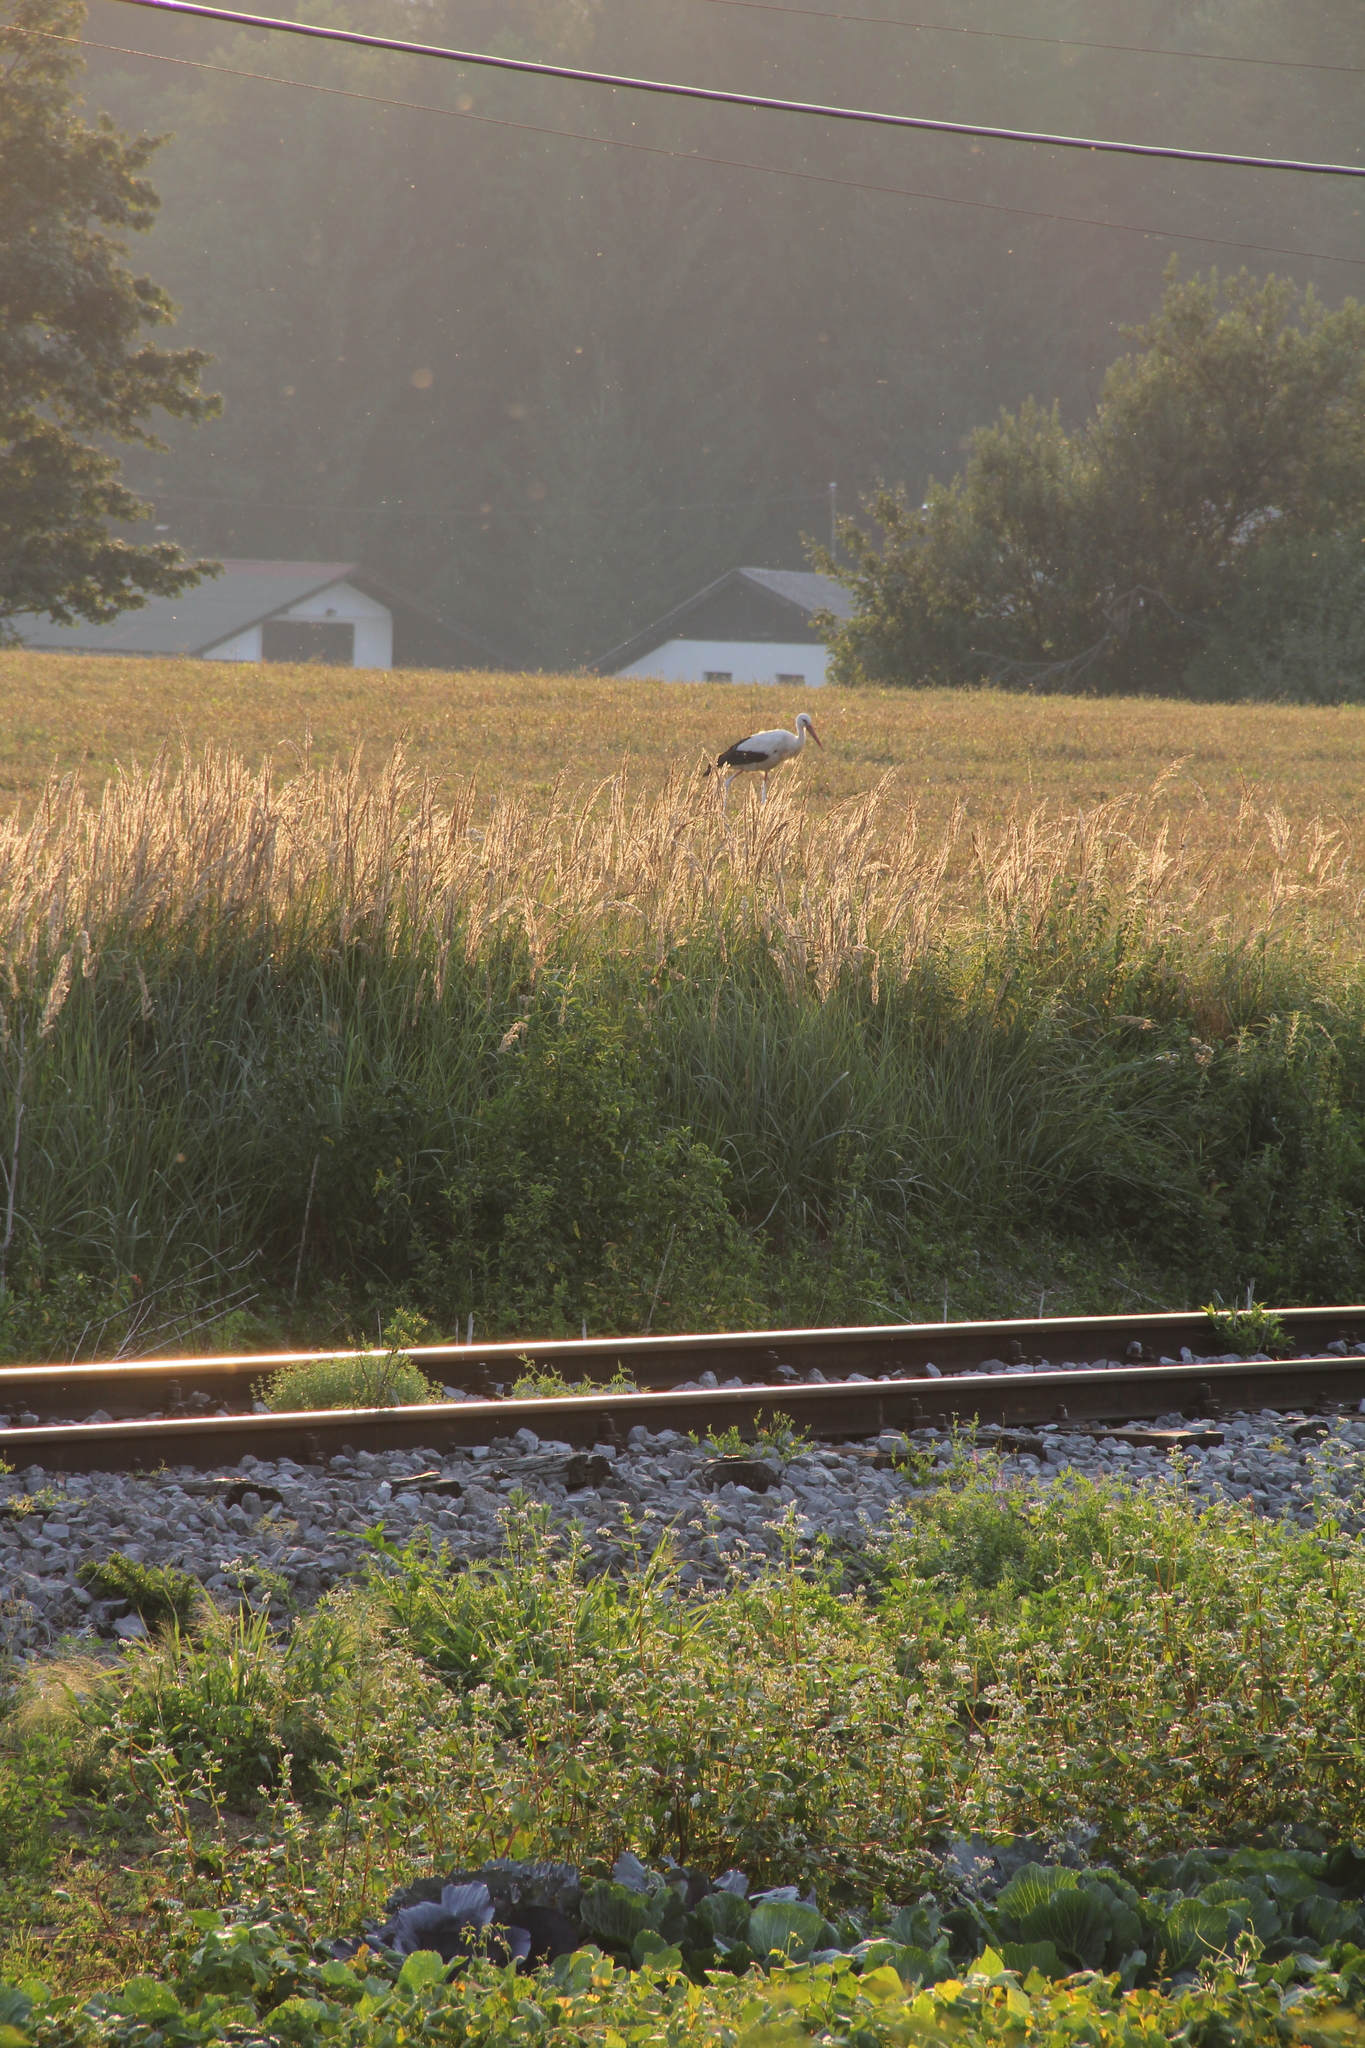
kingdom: Animalia
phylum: Chordata
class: Aves
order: Ciconiiformes
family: Ciconiidae
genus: Ciconia
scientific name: Ciconia ciconia
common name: White stork
